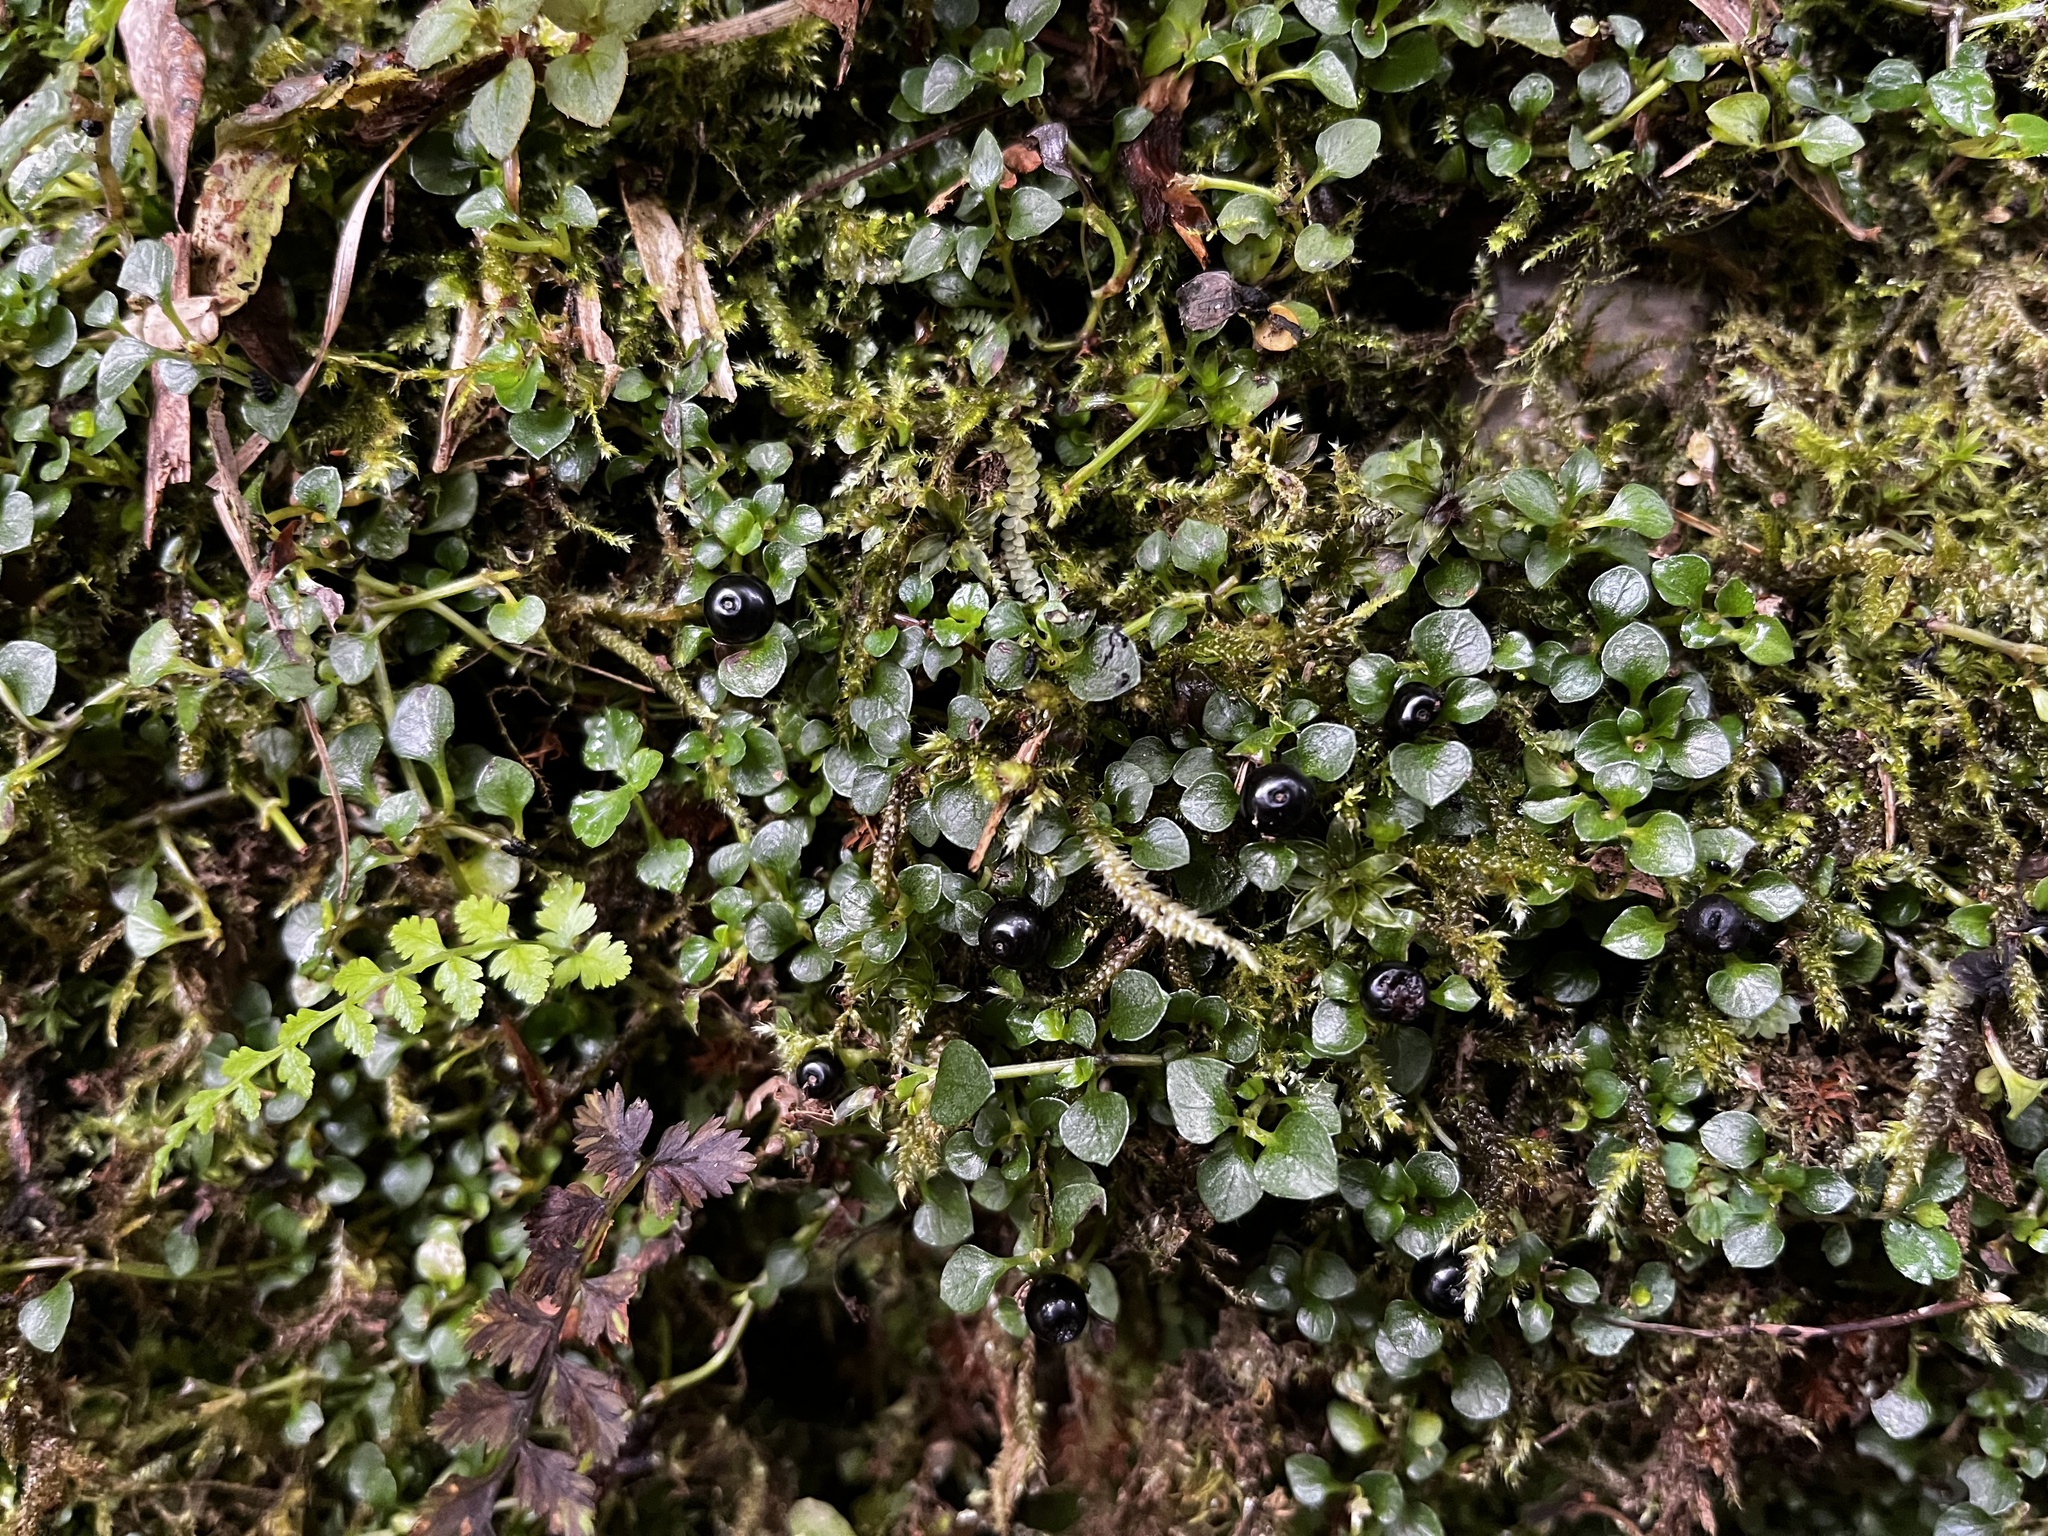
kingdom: Plantae
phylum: Tracheophyta
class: Magnoliopsida
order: Gentianales
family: Rubiaceae
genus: Nertera
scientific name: Nertera nigricarpa
